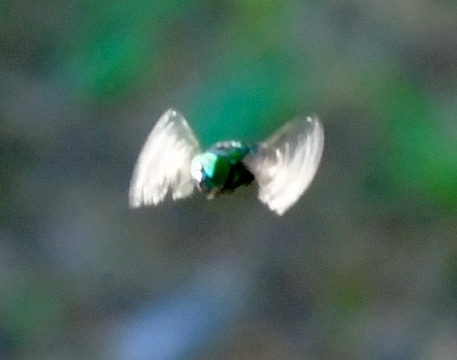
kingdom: Animalia
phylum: Arthropoda
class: Insecta
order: Diptera
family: Syrphidae
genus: Ornidia
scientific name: Ornidia obesa
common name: Syrphid fly
